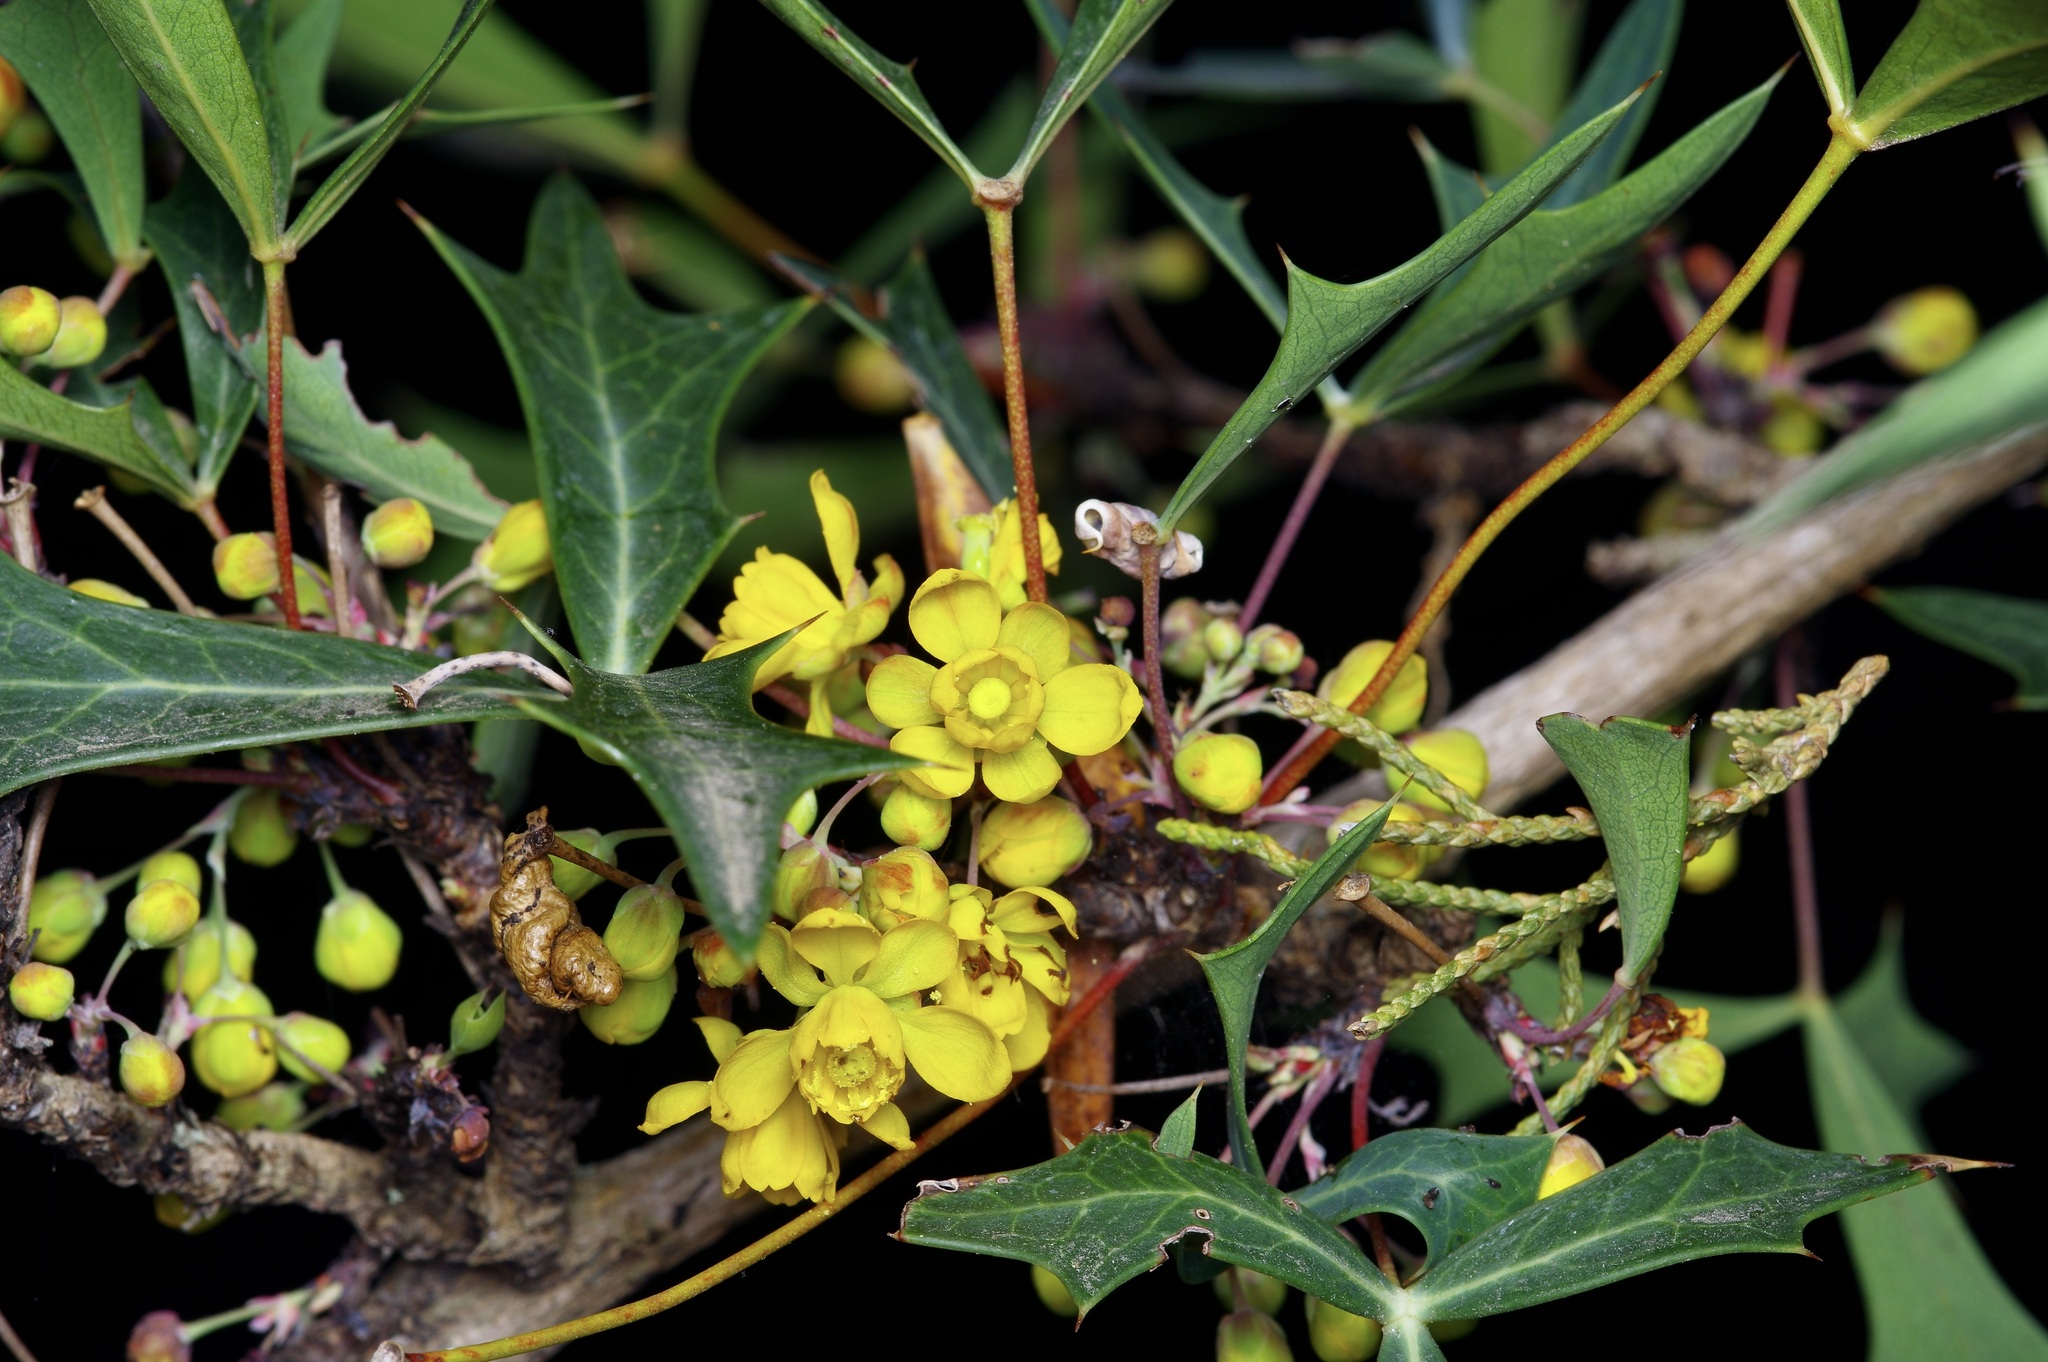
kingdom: Plantae
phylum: Tracheophyta
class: Magnoliopsida
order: Ranunculales
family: Berberidaceae
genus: Alloberberis
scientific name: Alloberberis trifoliolata
